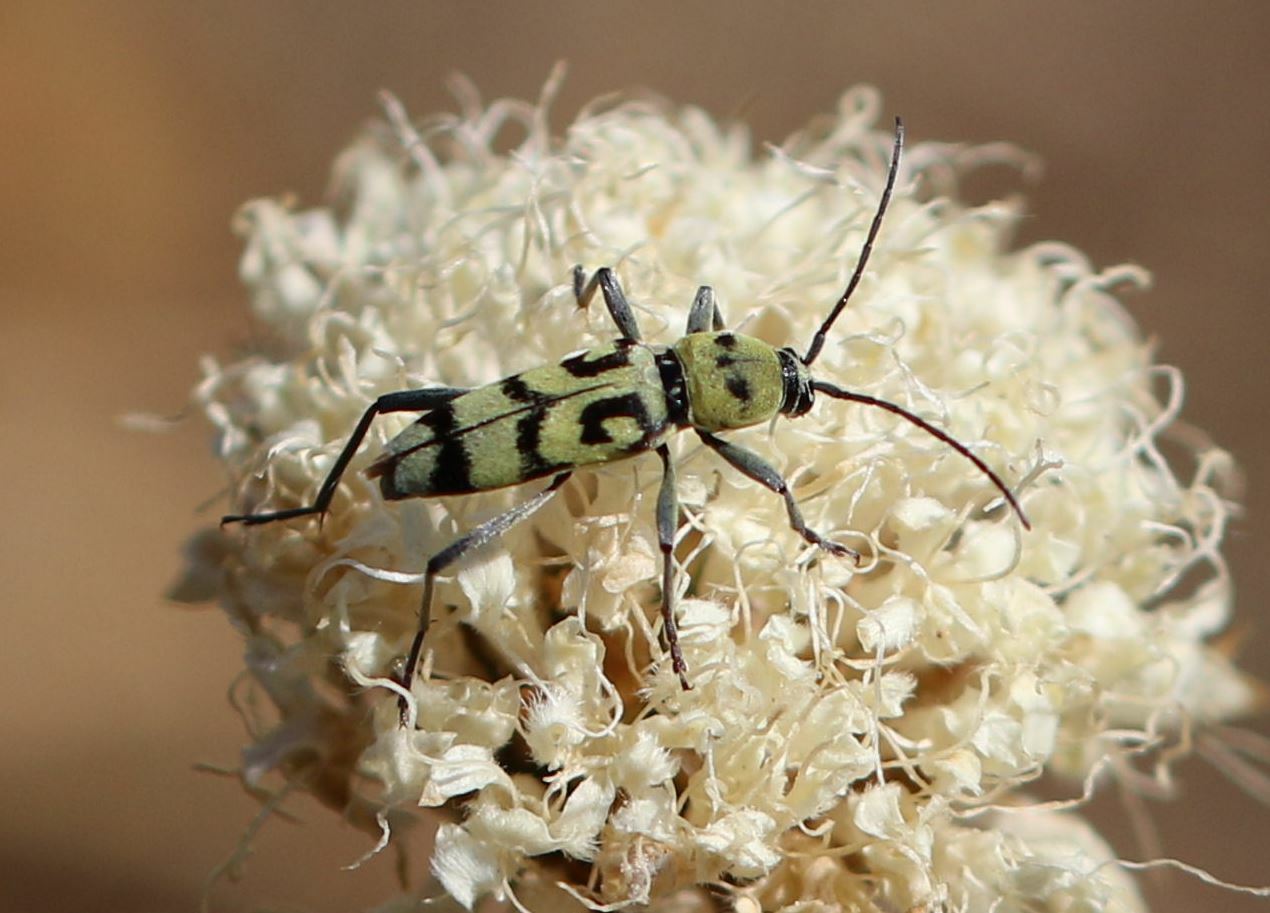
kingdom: Animalia
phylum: Arthropoda
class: Insecta
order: Coleoptera
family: Cerambycidae
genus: Chlorophorus
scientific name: Chlorophorus varius
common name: Grape wood borer
